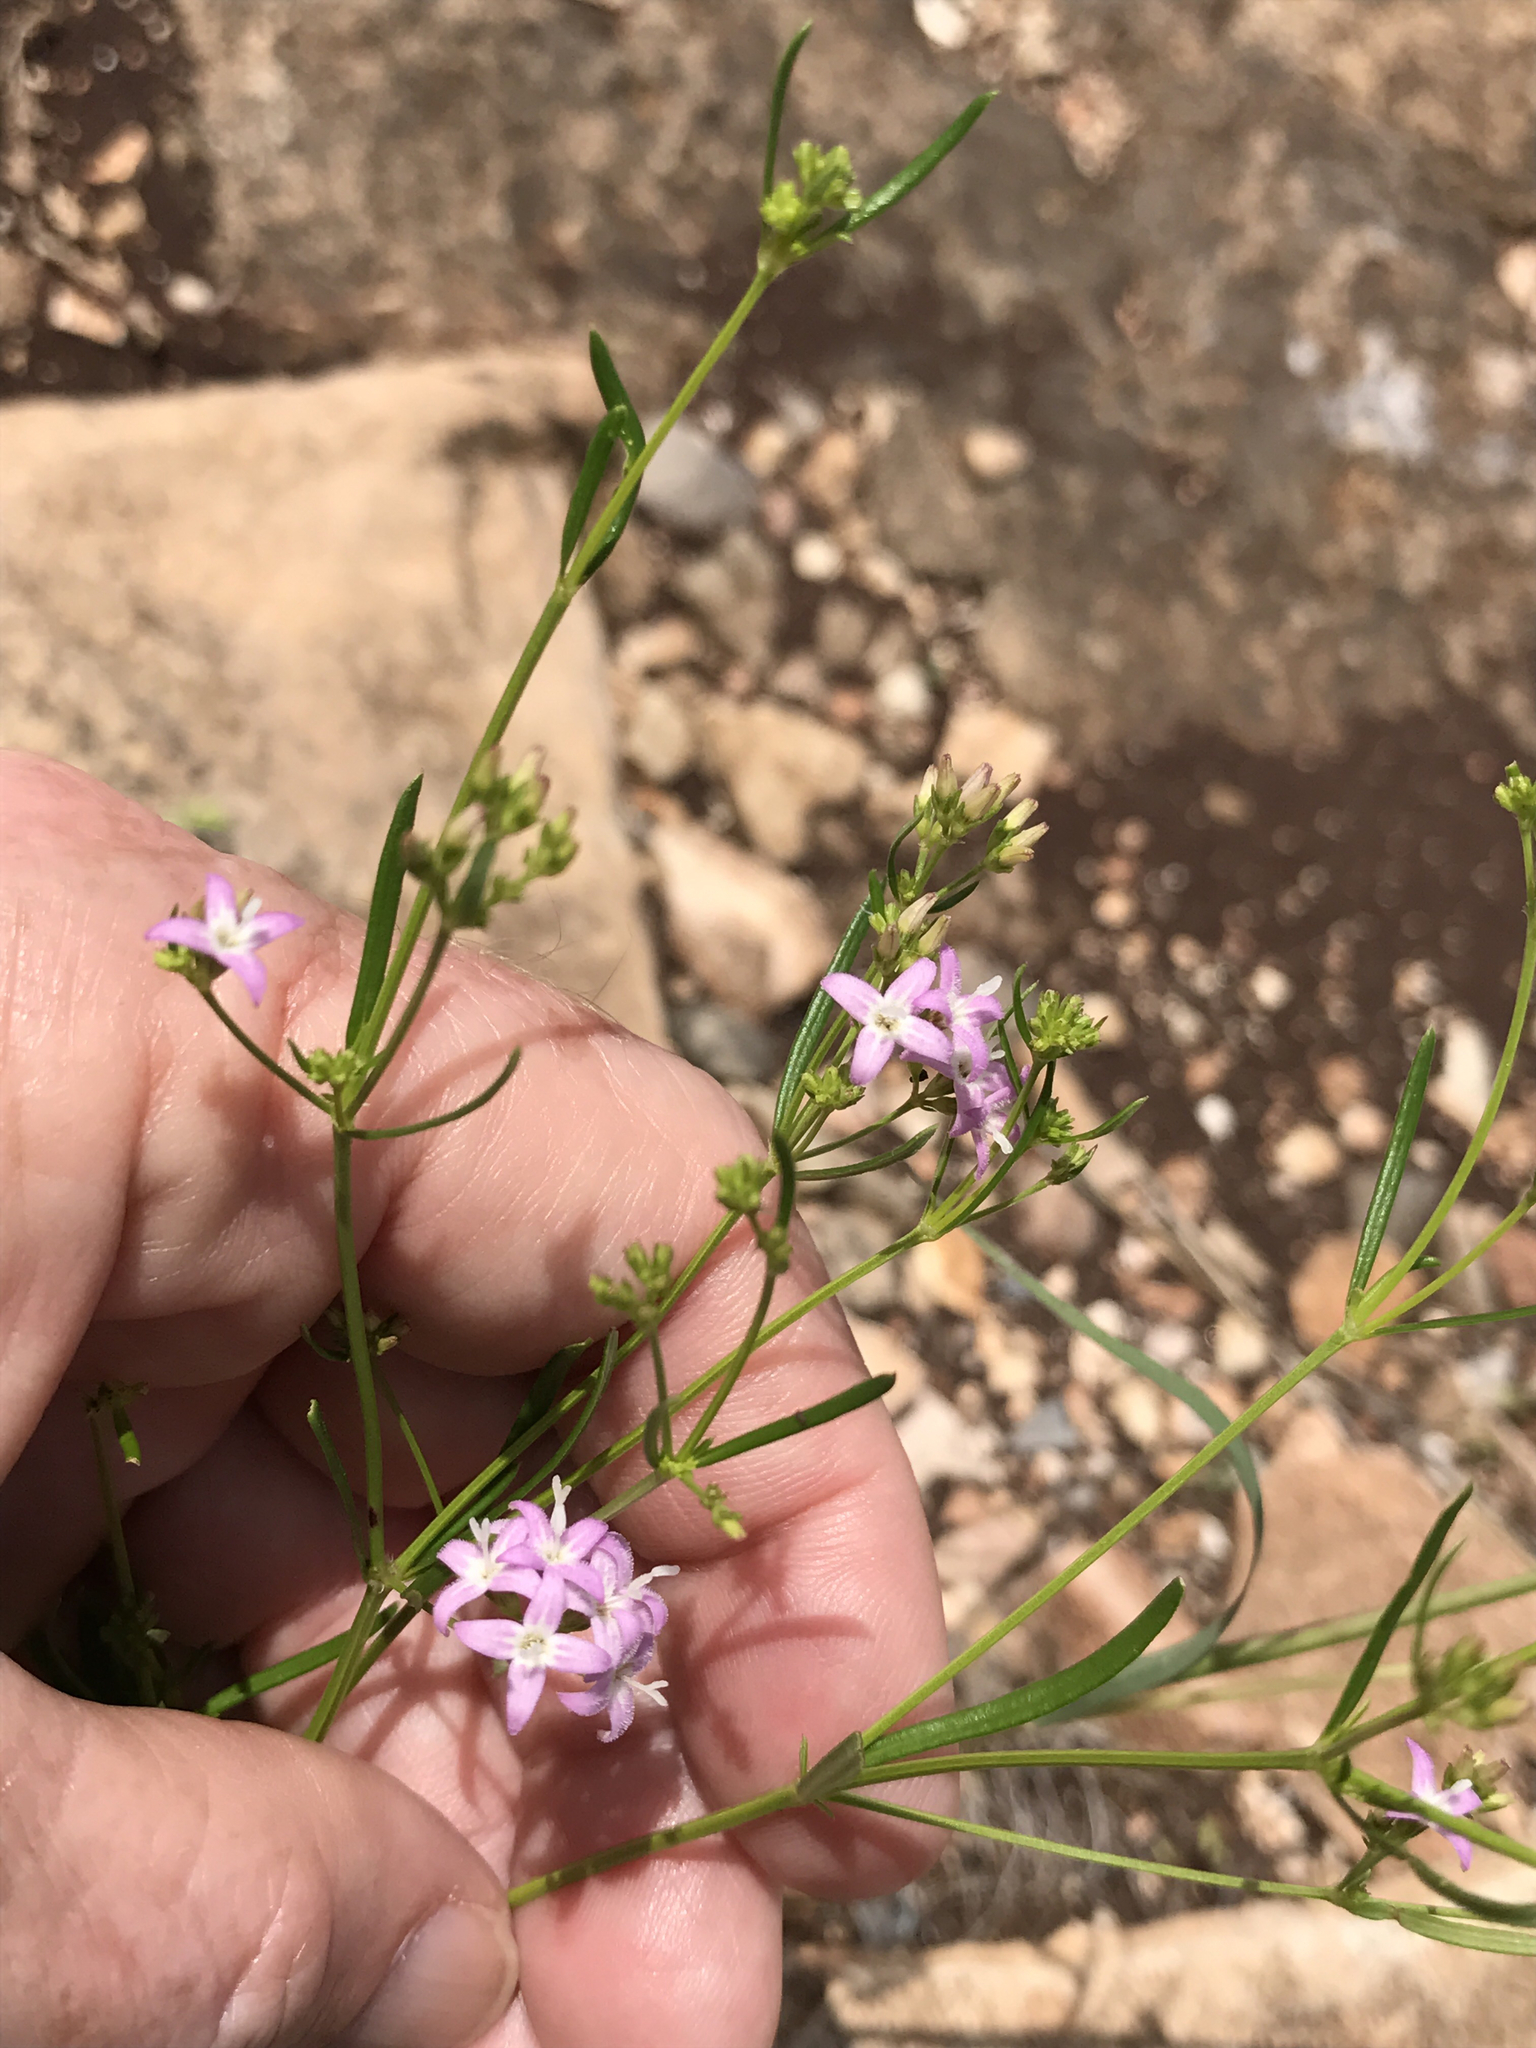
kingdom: Plantae
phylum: Tracheophyta
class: Magnoliopsida
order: Gentianales
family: Rubiaceae
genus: Stenaria
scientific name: Stenaria nigricans
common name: Diamondflowers
